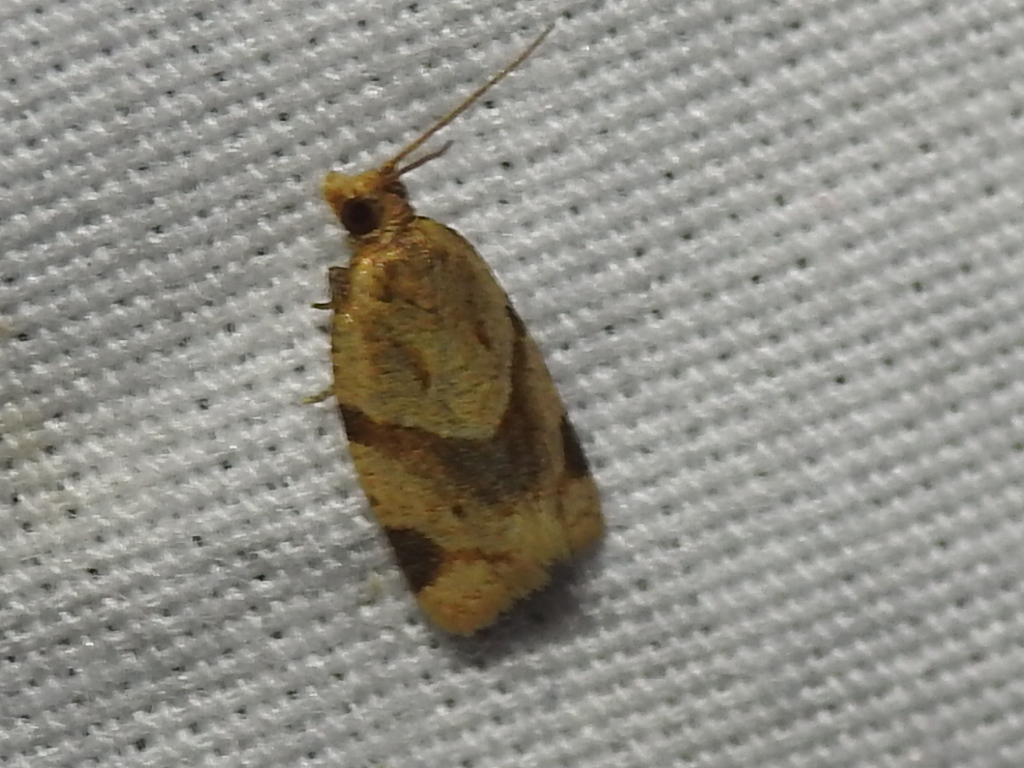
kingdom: Animalia
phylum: Arthropoda
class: Insecta
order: Lepidoptera
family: Tortricidae
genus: Clepsis
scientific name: Clepsis peritana
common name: Garden tortrix
